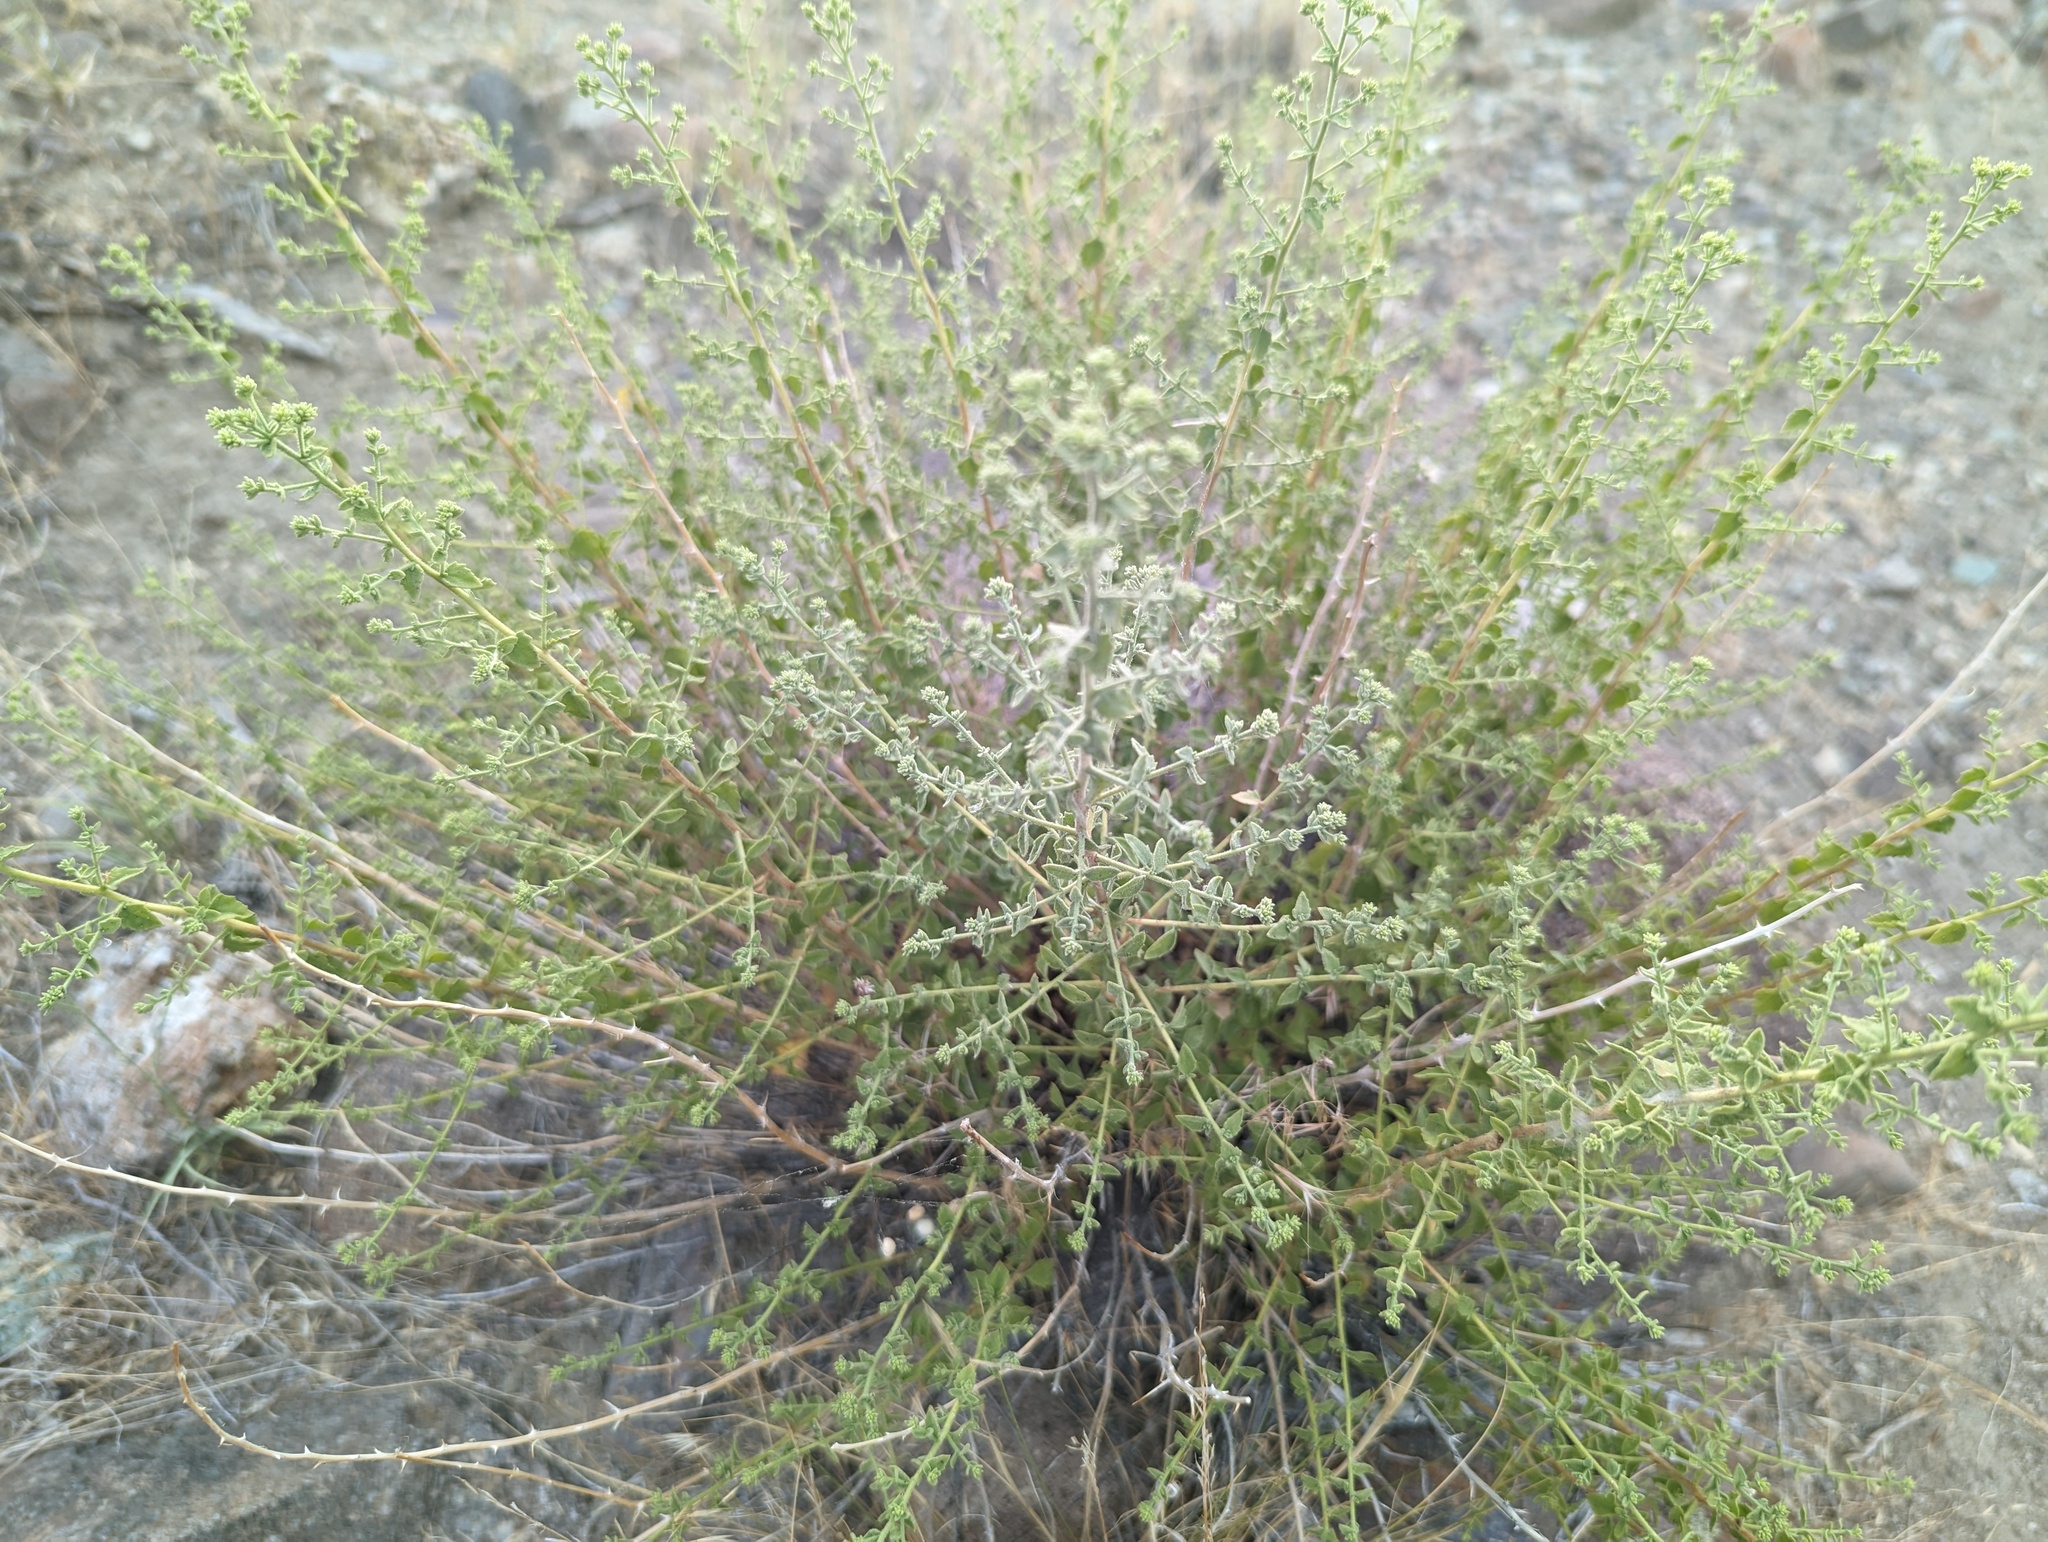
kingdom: Plantae
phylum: Tracheophyta
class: Magnoliopsida
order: Asterales
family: Asteraceae
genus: Brickellia
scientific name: Brickellia microphylla
